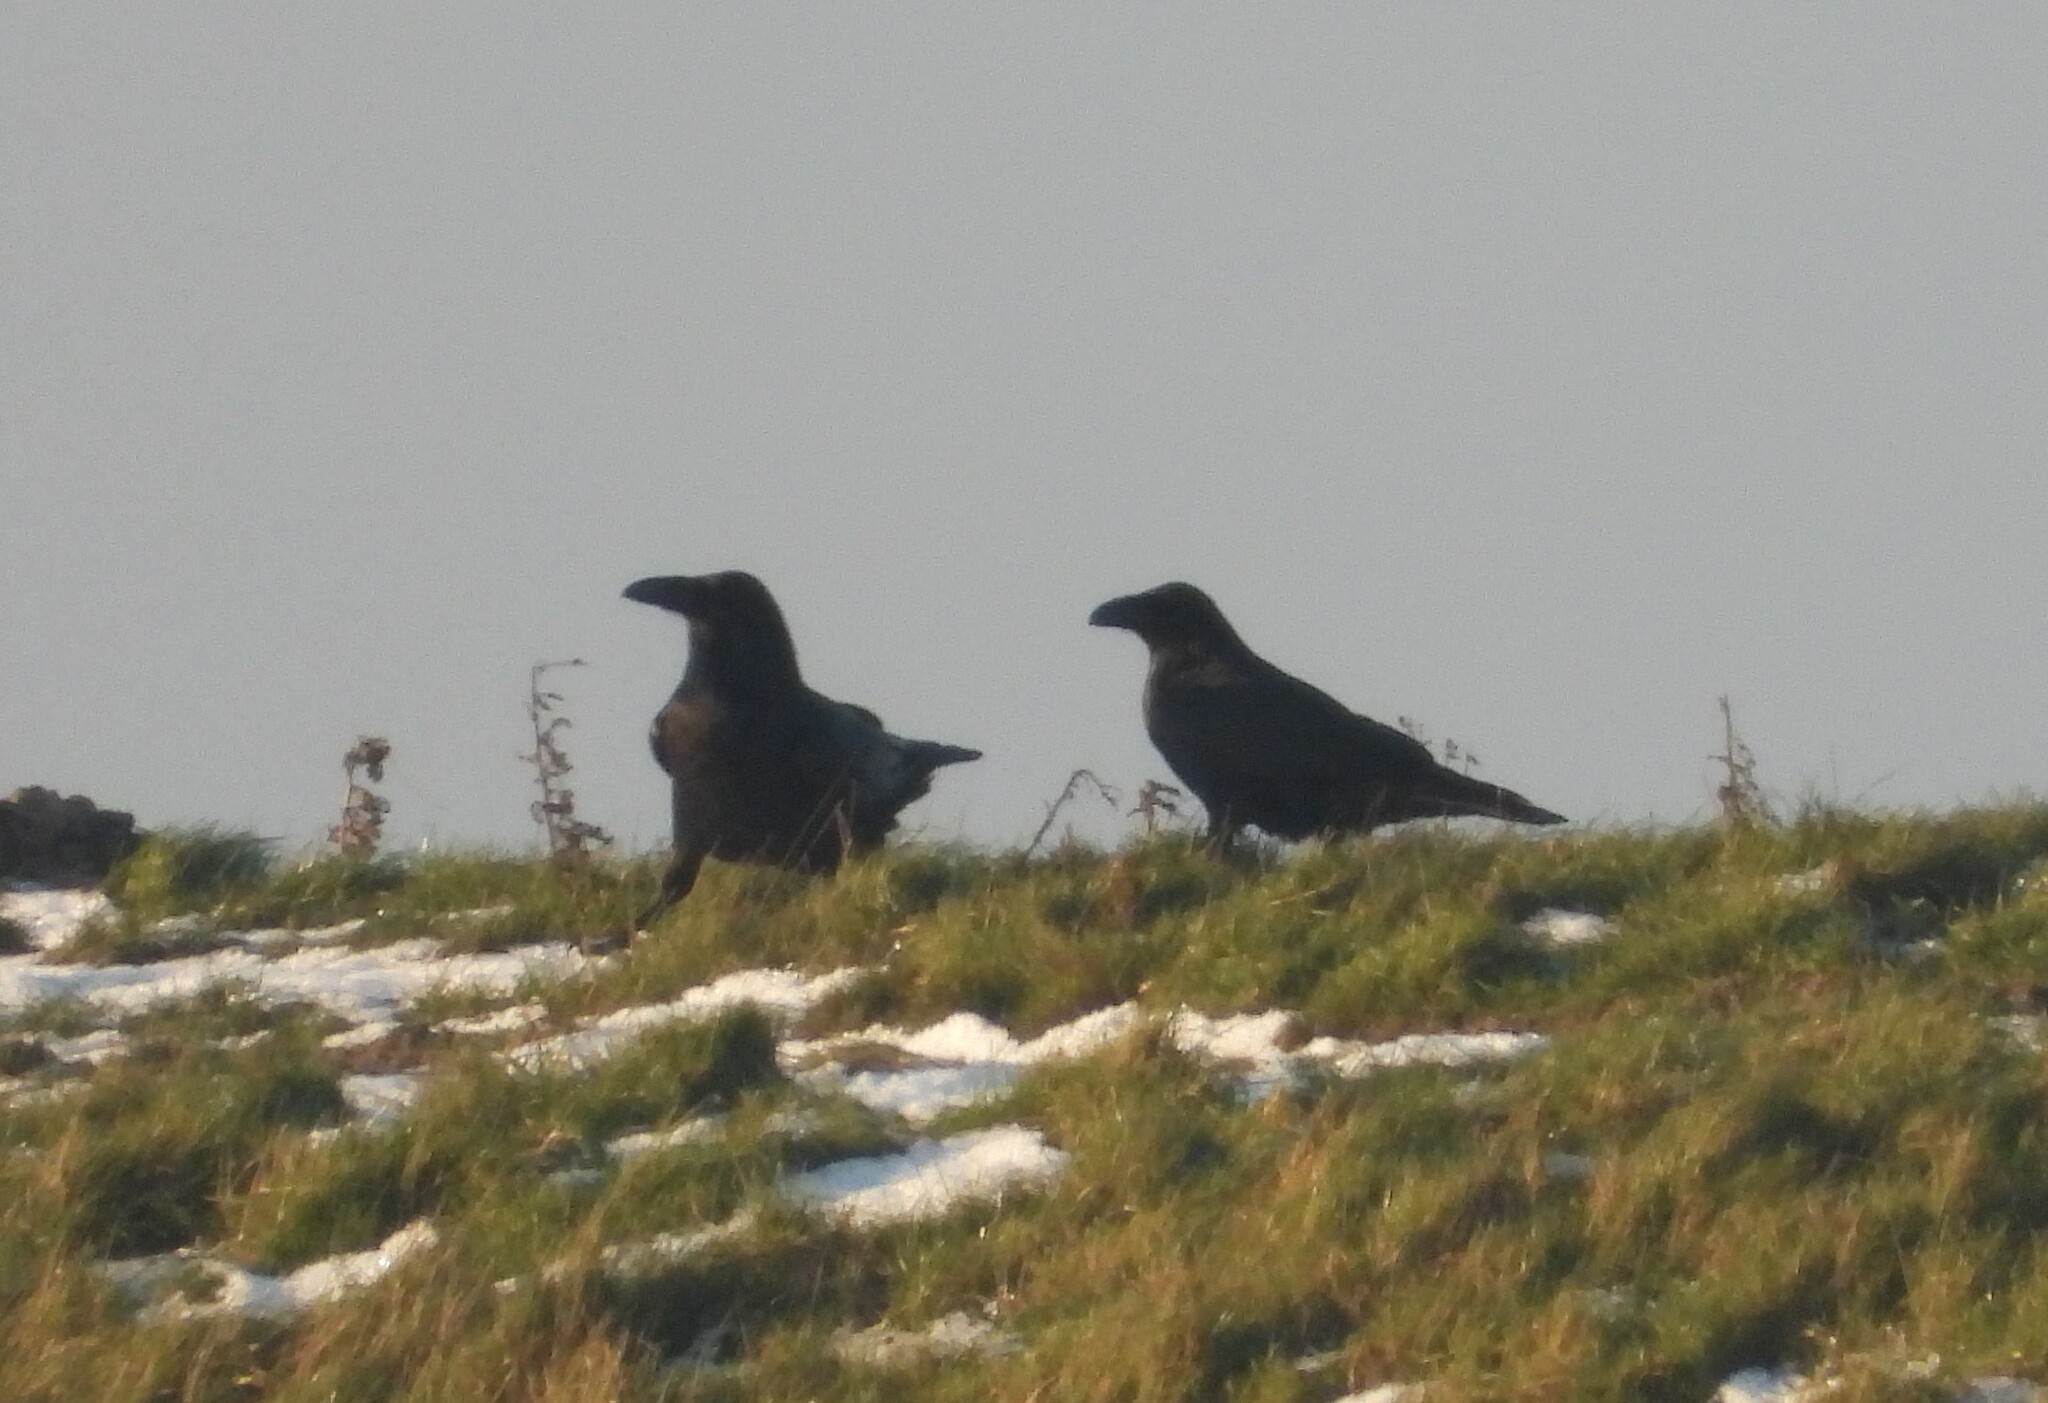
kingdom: Animalia
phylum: Chordata
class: Aves
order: Passeriformes
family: Corvidae
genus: Corvus
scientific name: Corvus corax
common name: Common raven
